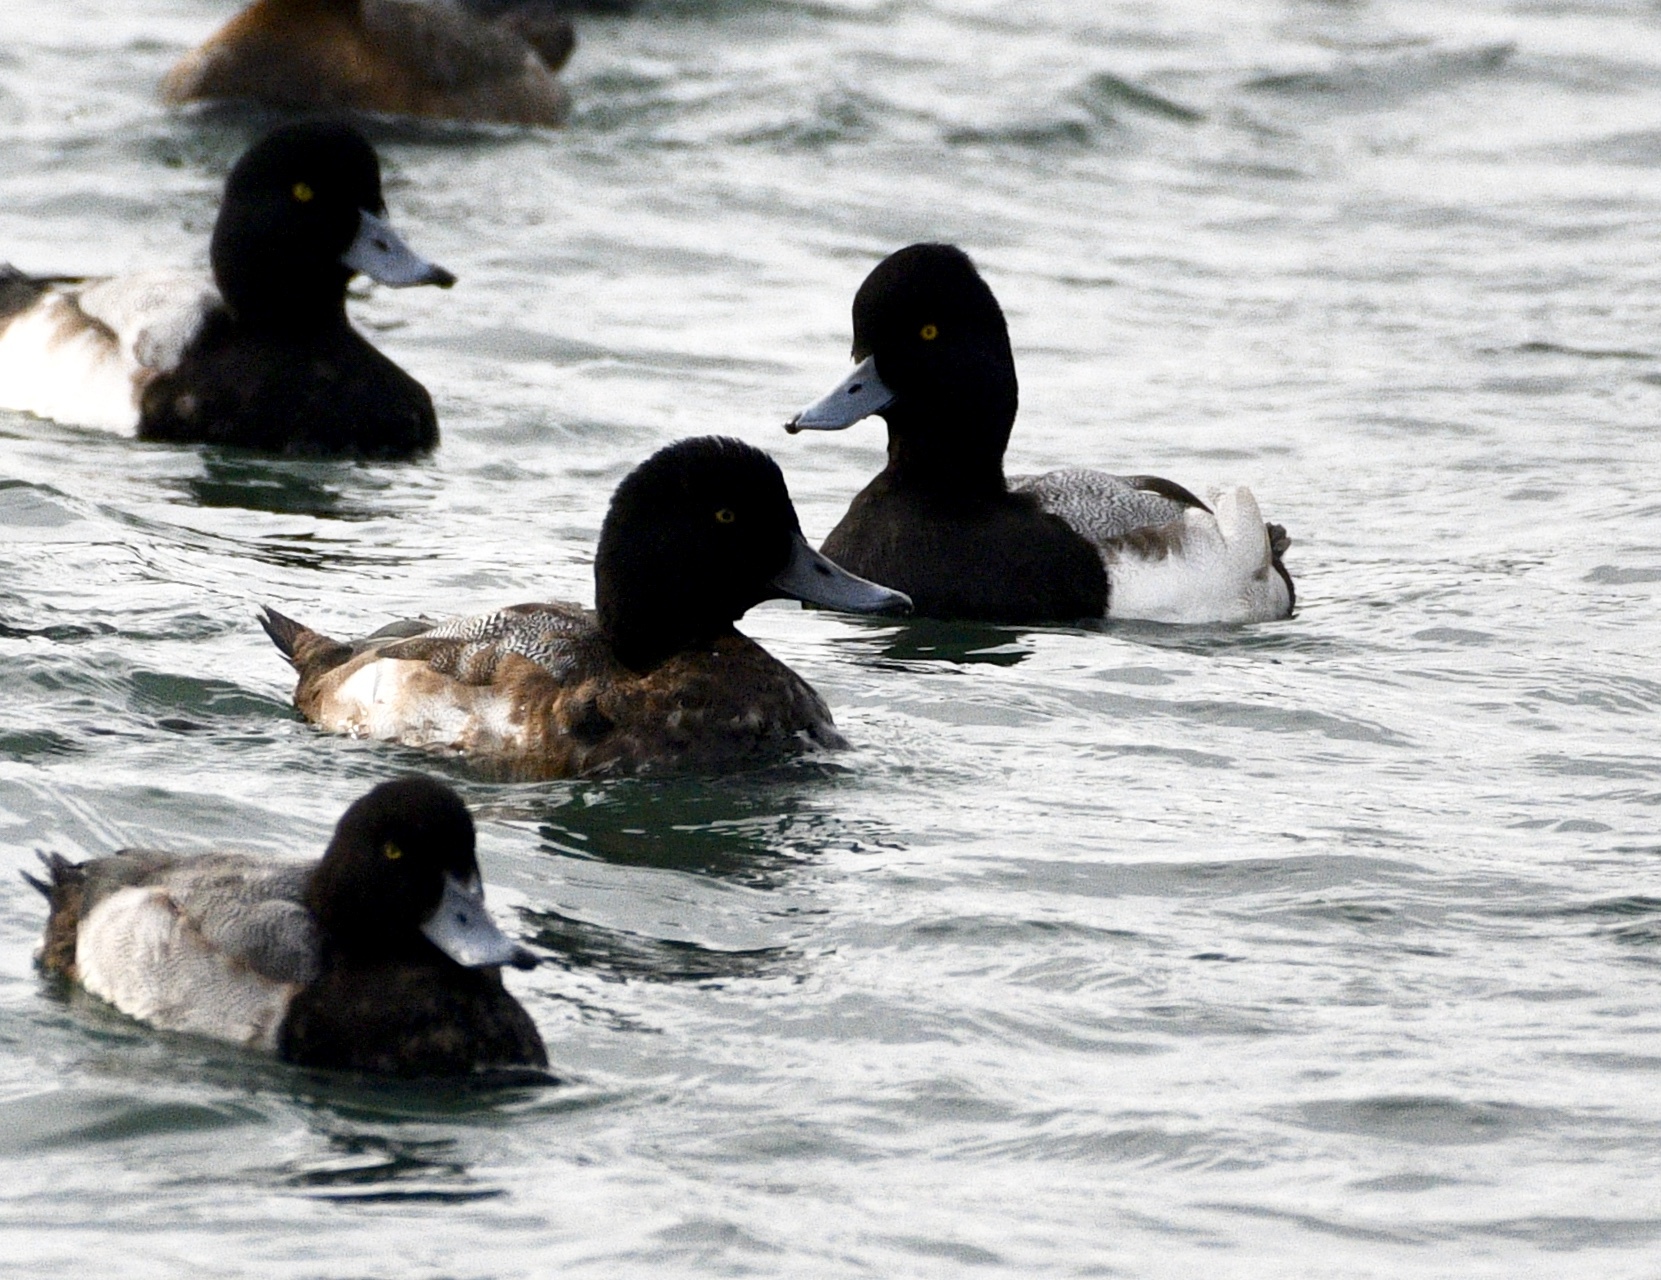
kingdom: Animalia
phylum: Chordata
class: Aves
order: Anseriformes
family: Anatidae
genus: Aythya
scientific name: Aythya affinis
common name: Lesser scaup
